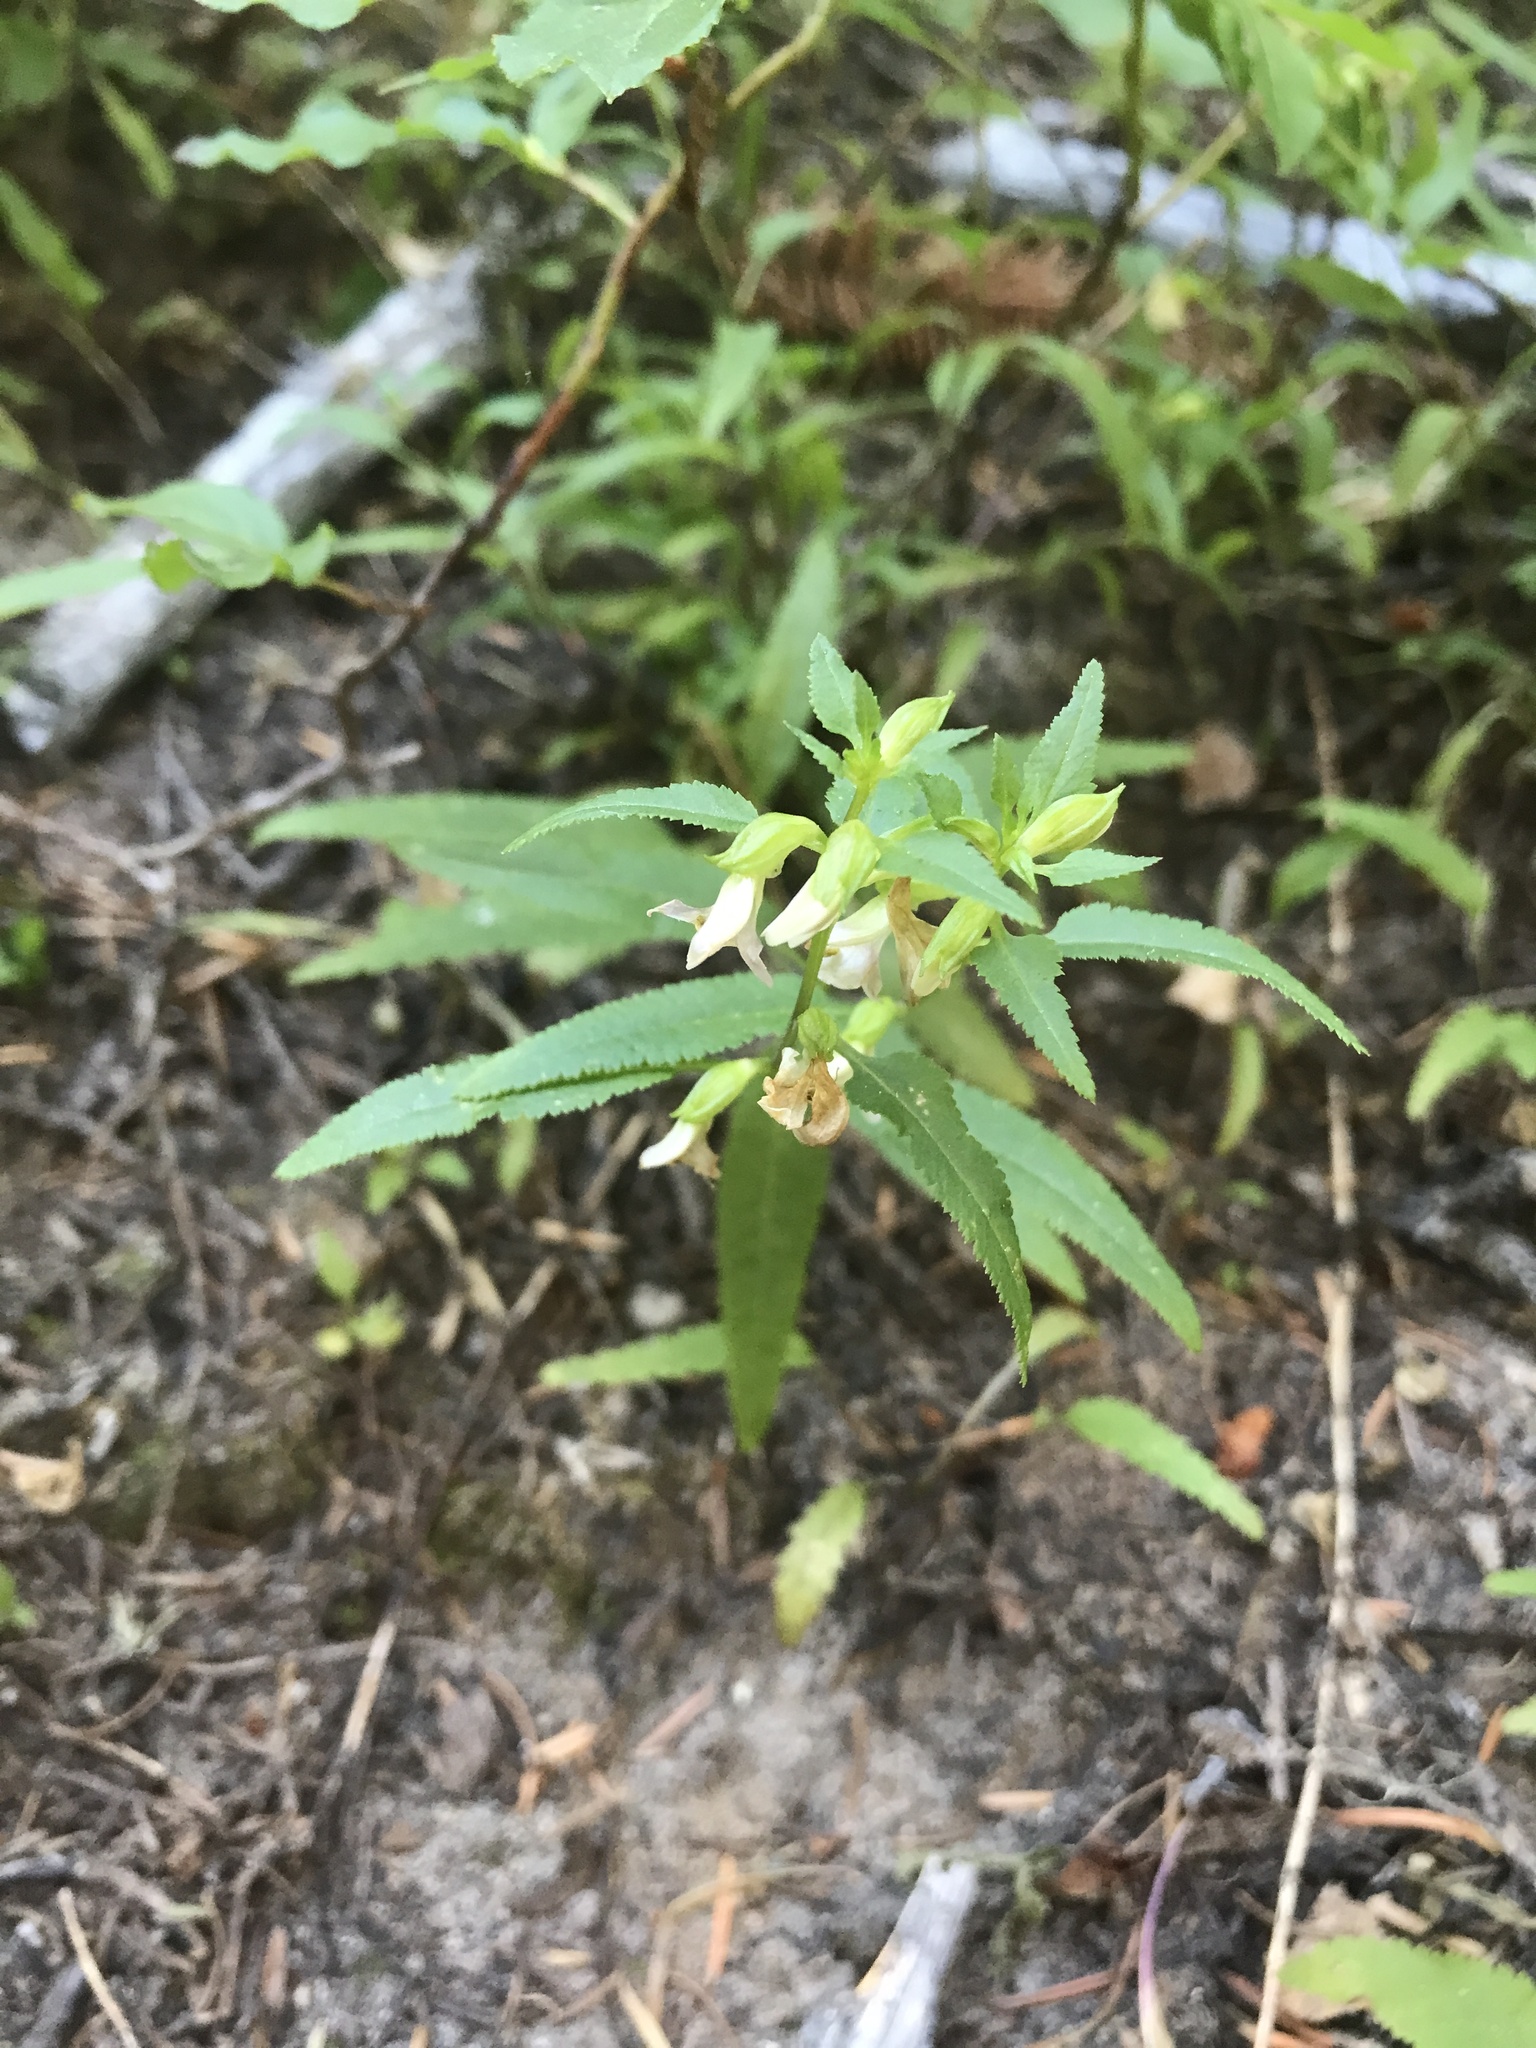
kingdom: Plantae
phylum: Tracheophyta
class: Magnoliopsida
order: Lamiales
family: Orobanchaceae
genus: Pedicularis
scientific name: Pedicularis racemosa
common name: Leafy lousewort
